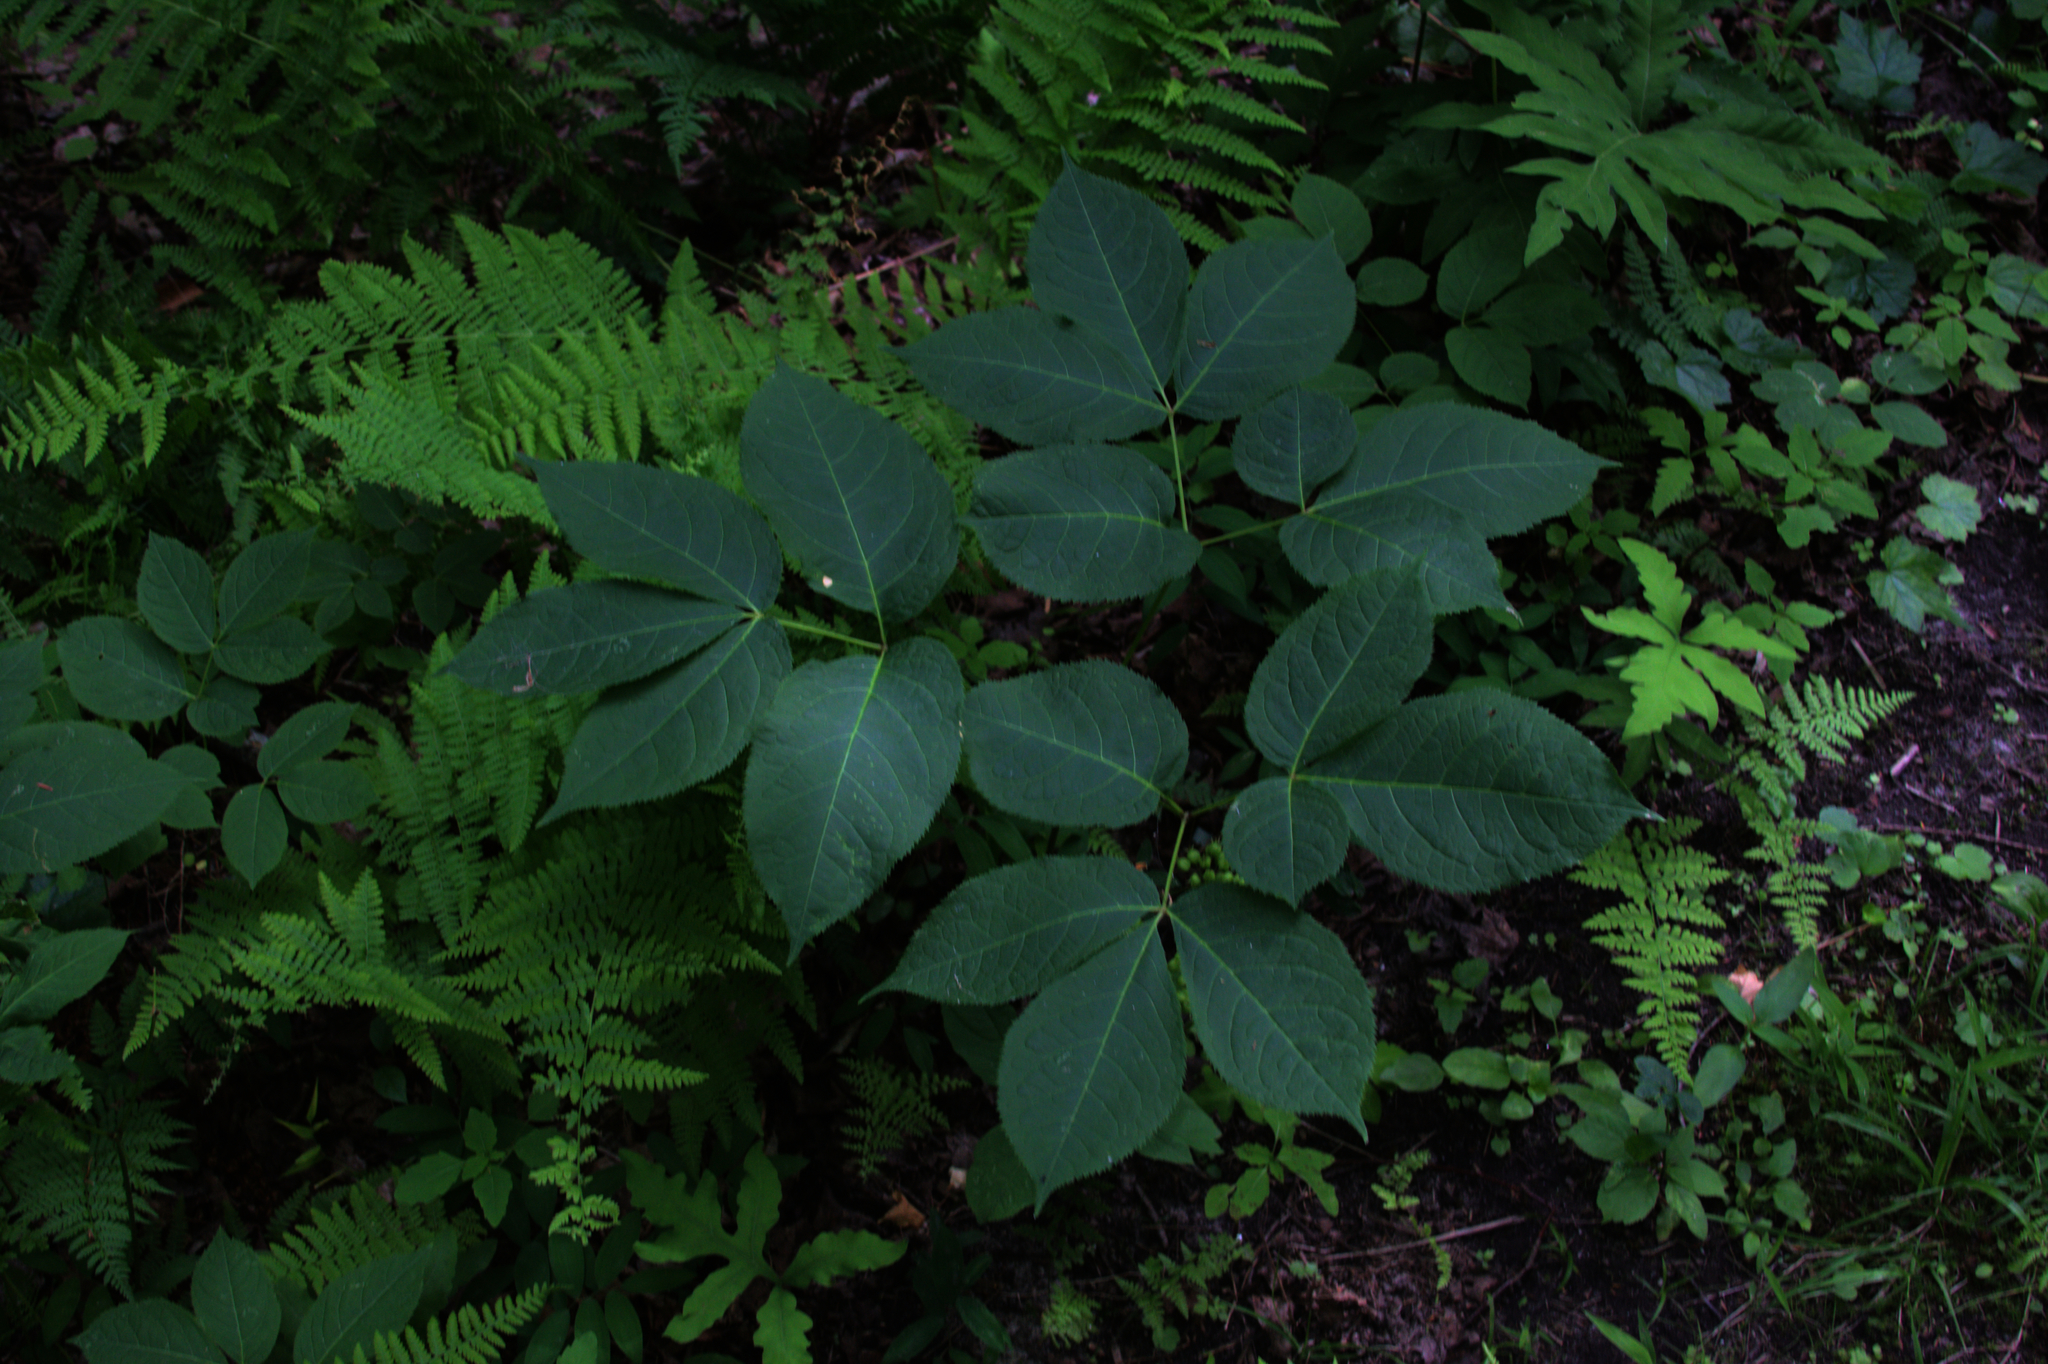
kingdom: Plantae
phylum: Tracheophyta
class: Magnoliopsida
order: Apiales
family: Araliaceae
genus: Aralia
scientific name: Aralia nudicaulis
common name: Wild sarsaparilla
